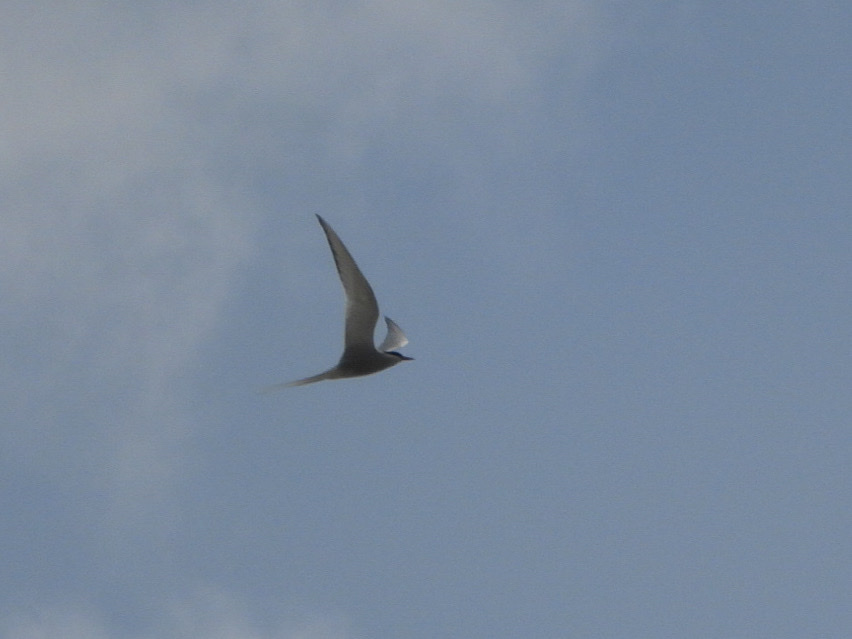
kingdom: Animalia
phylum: Chordata
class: Aves
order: Charadriiformes
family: Laridae
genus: Sterna
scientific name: Sterna paradisaea
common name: Arctic tern
